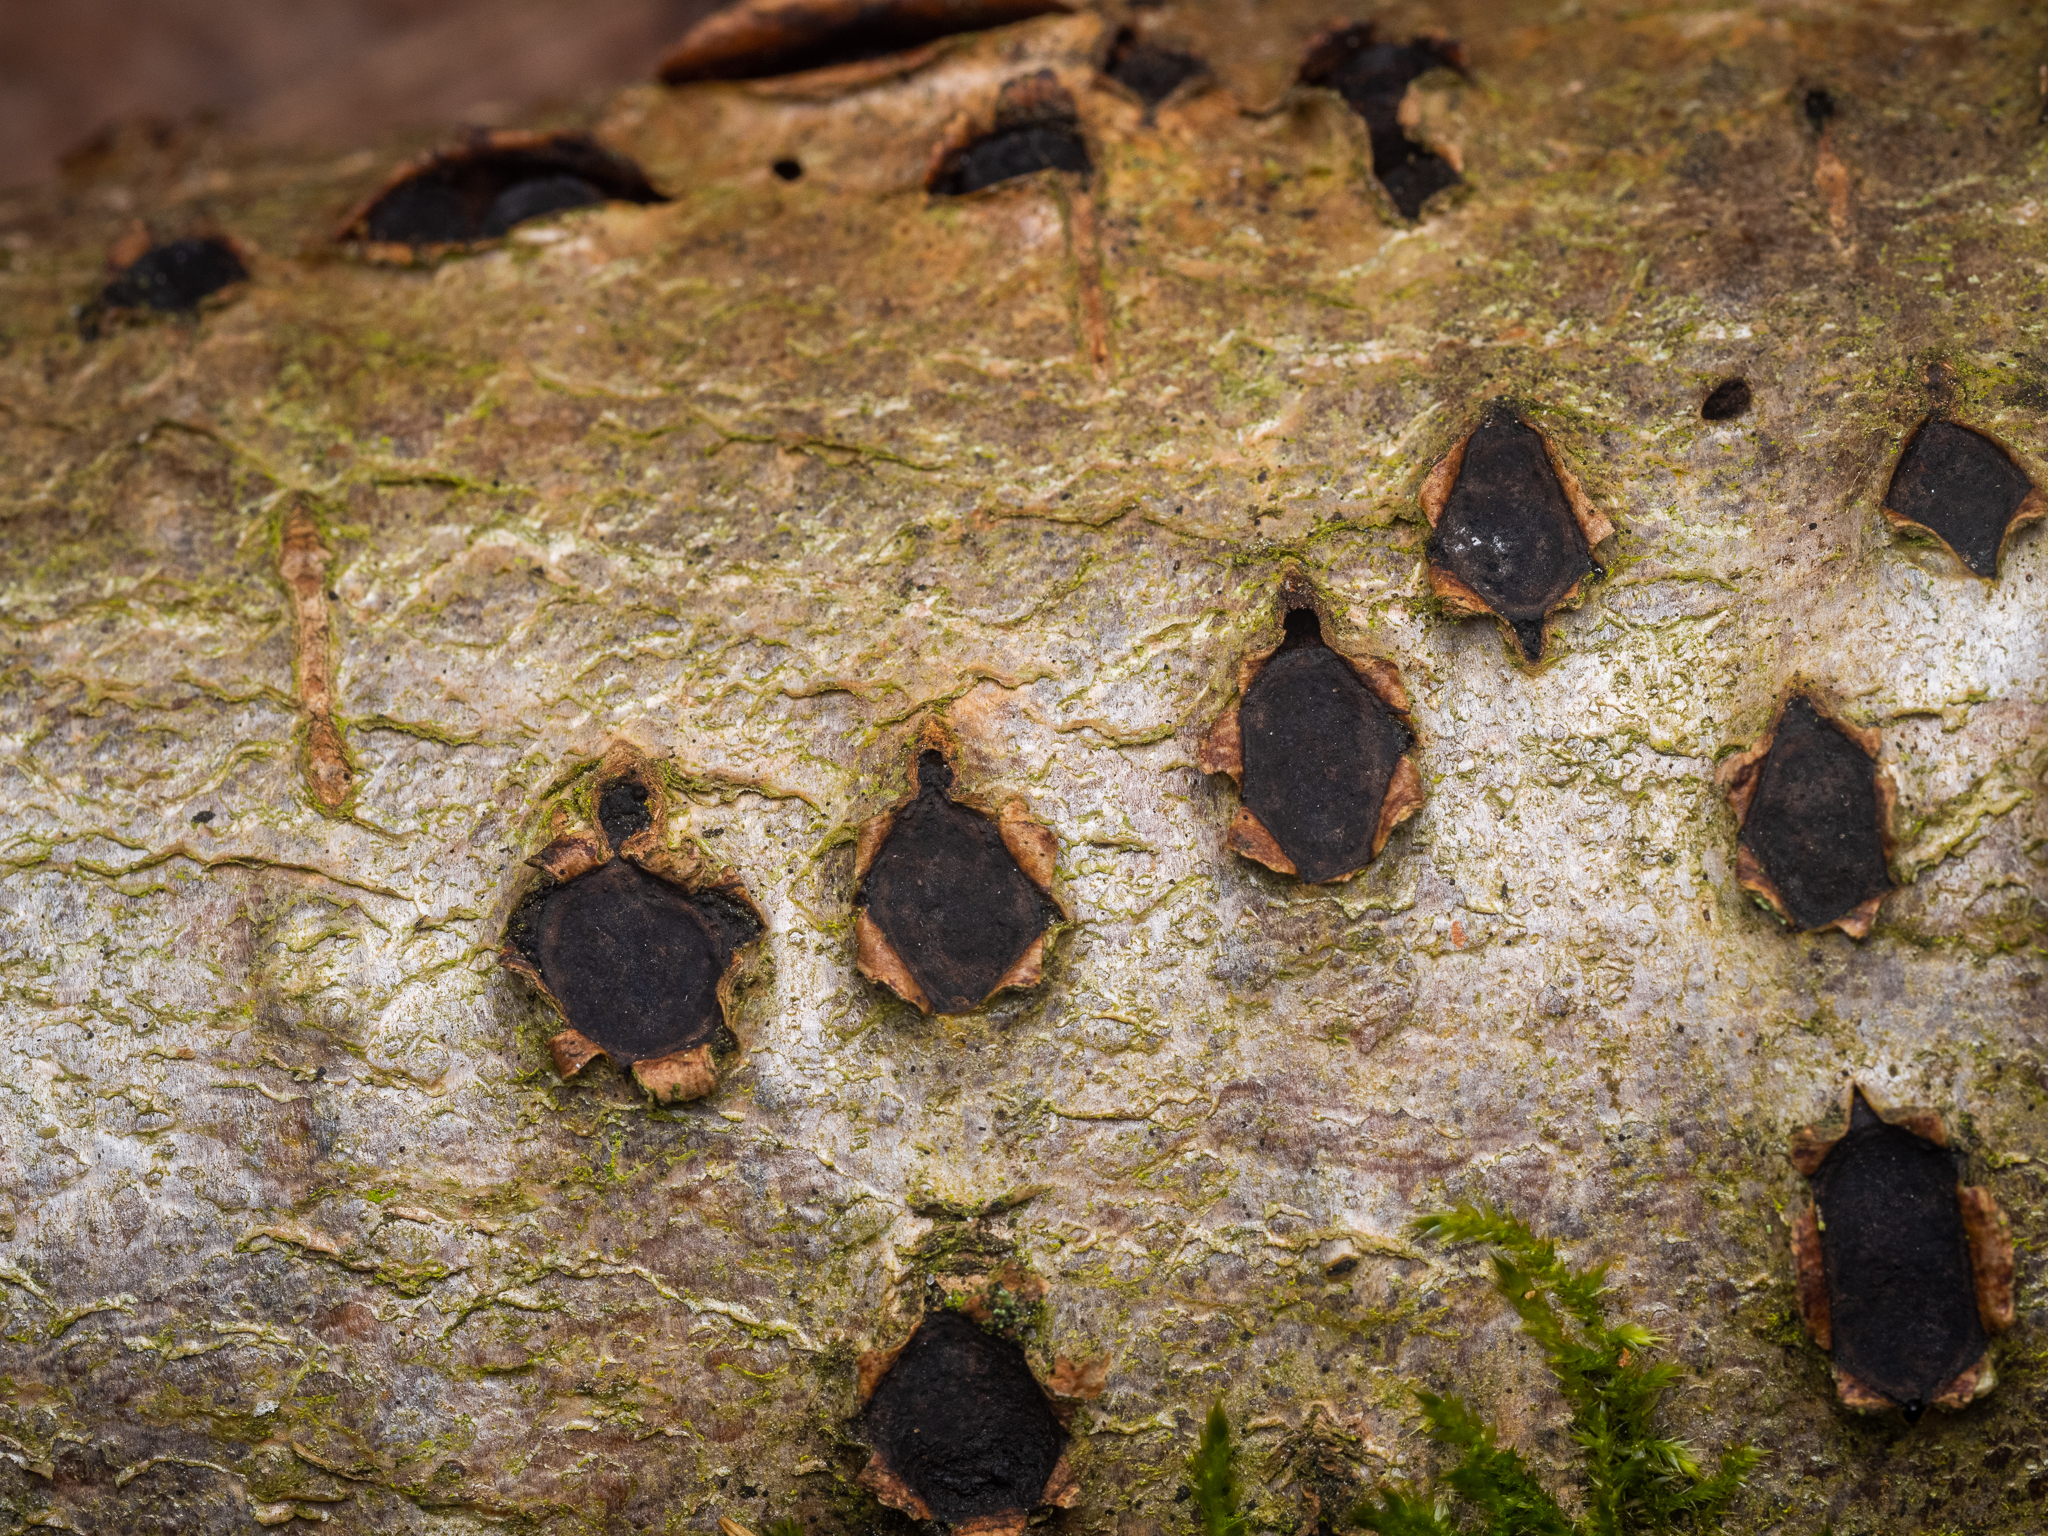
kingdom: Fungi
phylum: Ascomycota
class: Sordariomycetes
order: Xylariales
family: Graphostromataceae
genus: Biscogniauxia
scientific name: Biscogniauxia marginata
